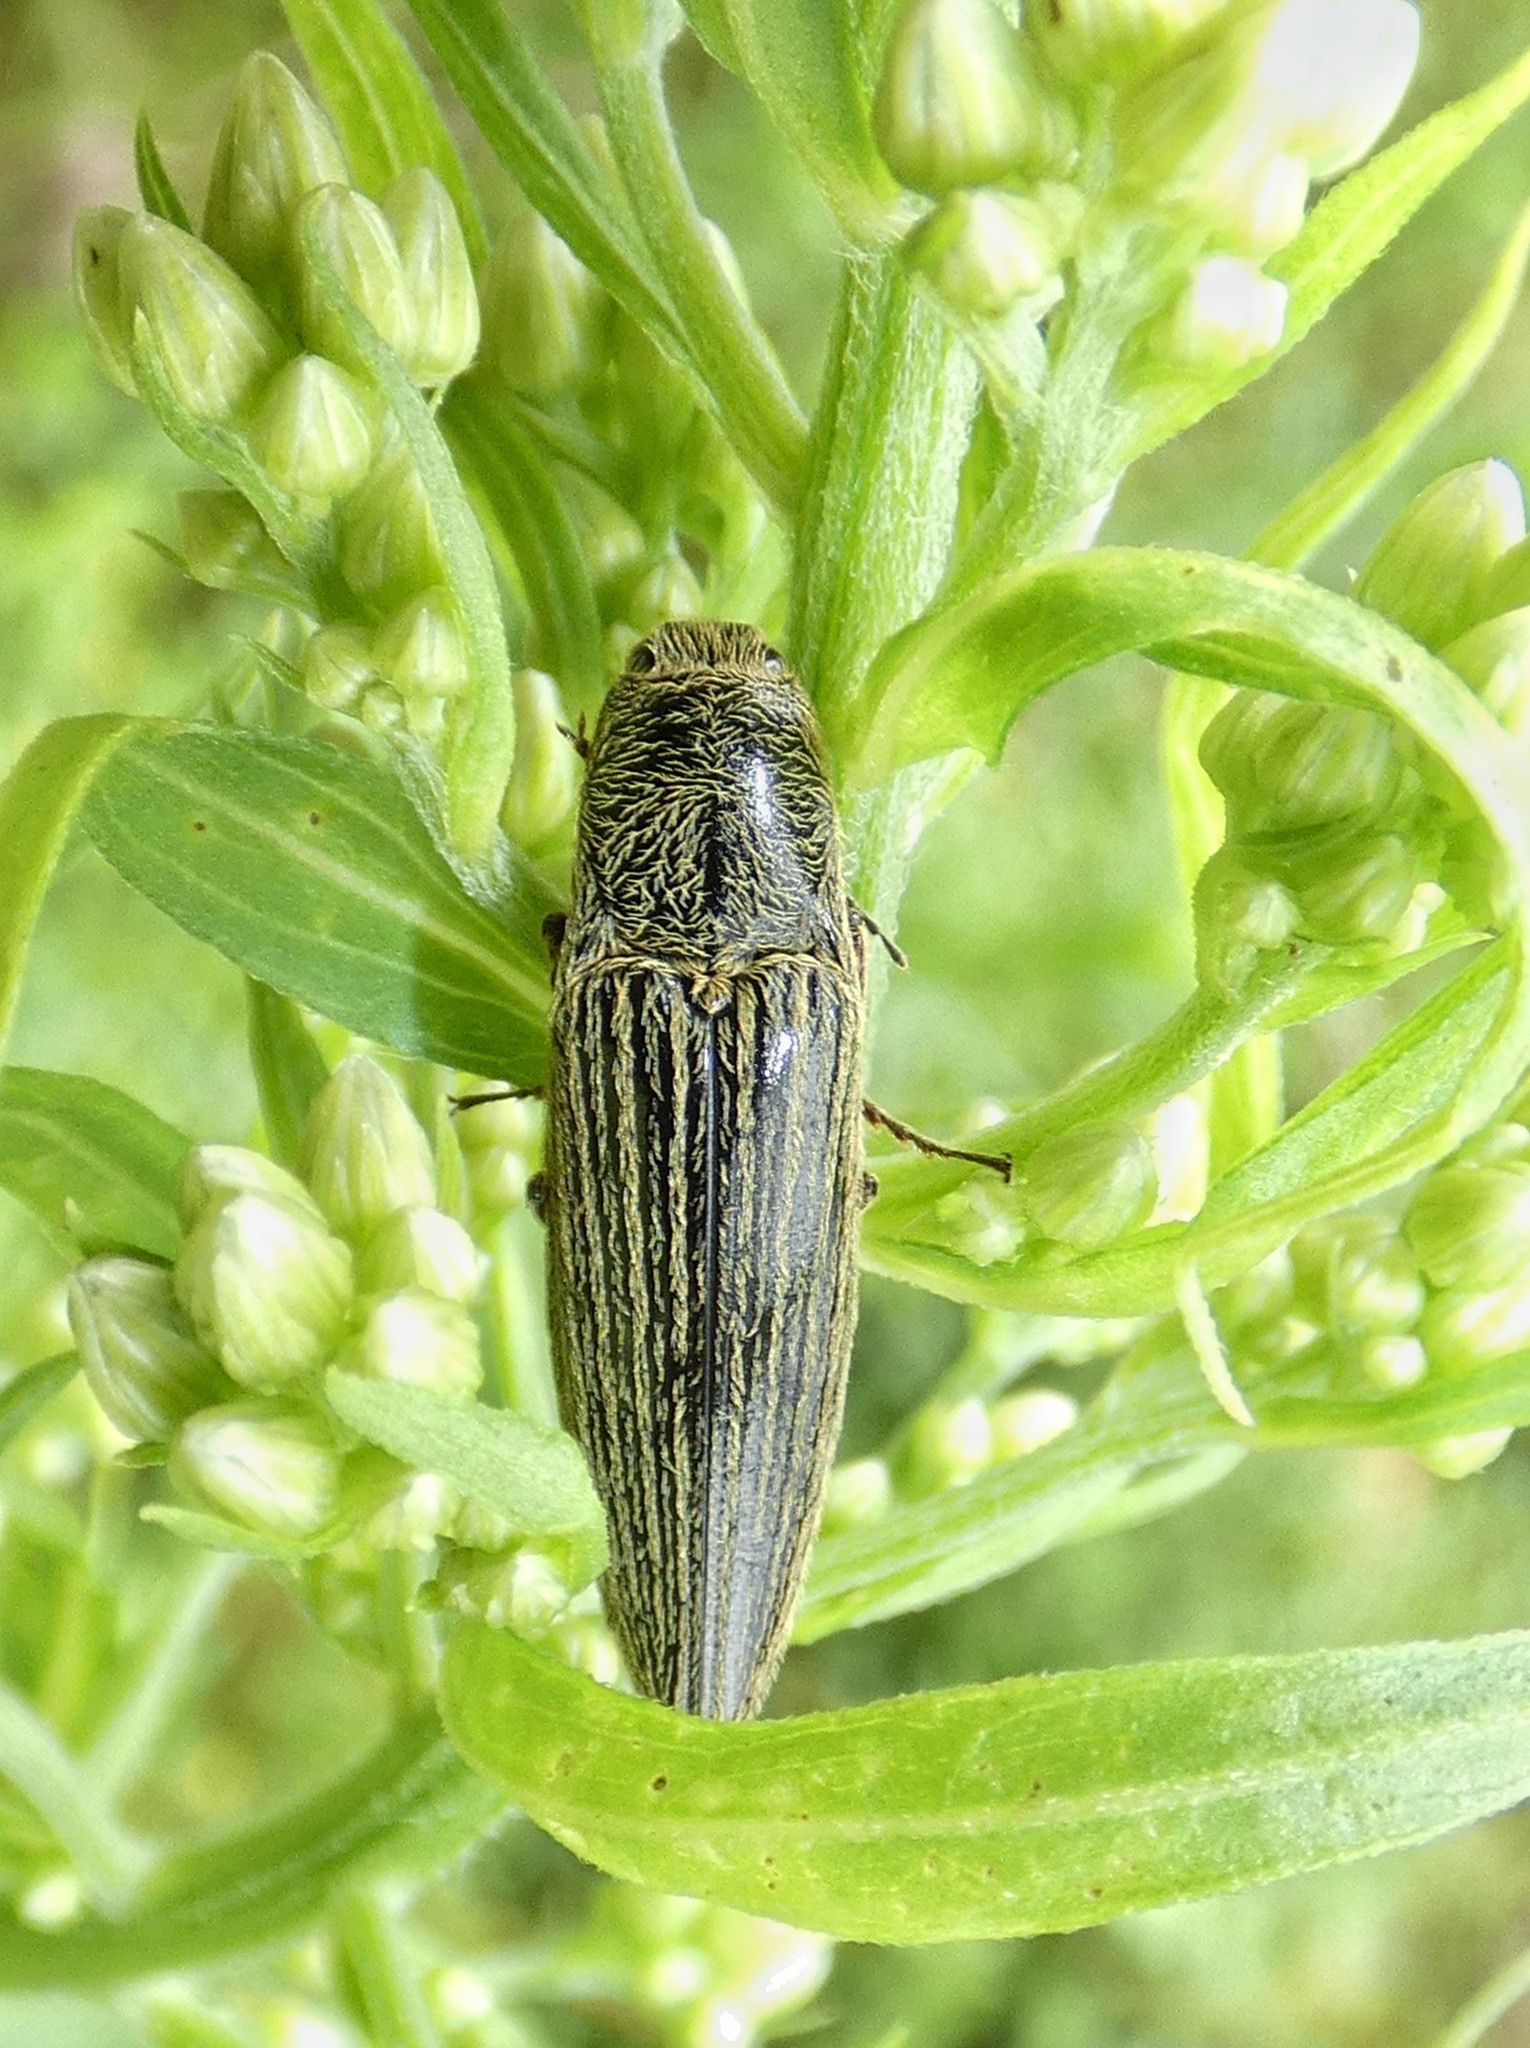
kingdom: Animalia
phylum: Arthropoda
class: Insecta
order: Coleoptera
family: Elateridae
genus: Melanotus
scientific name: Melanotus staudingeri
